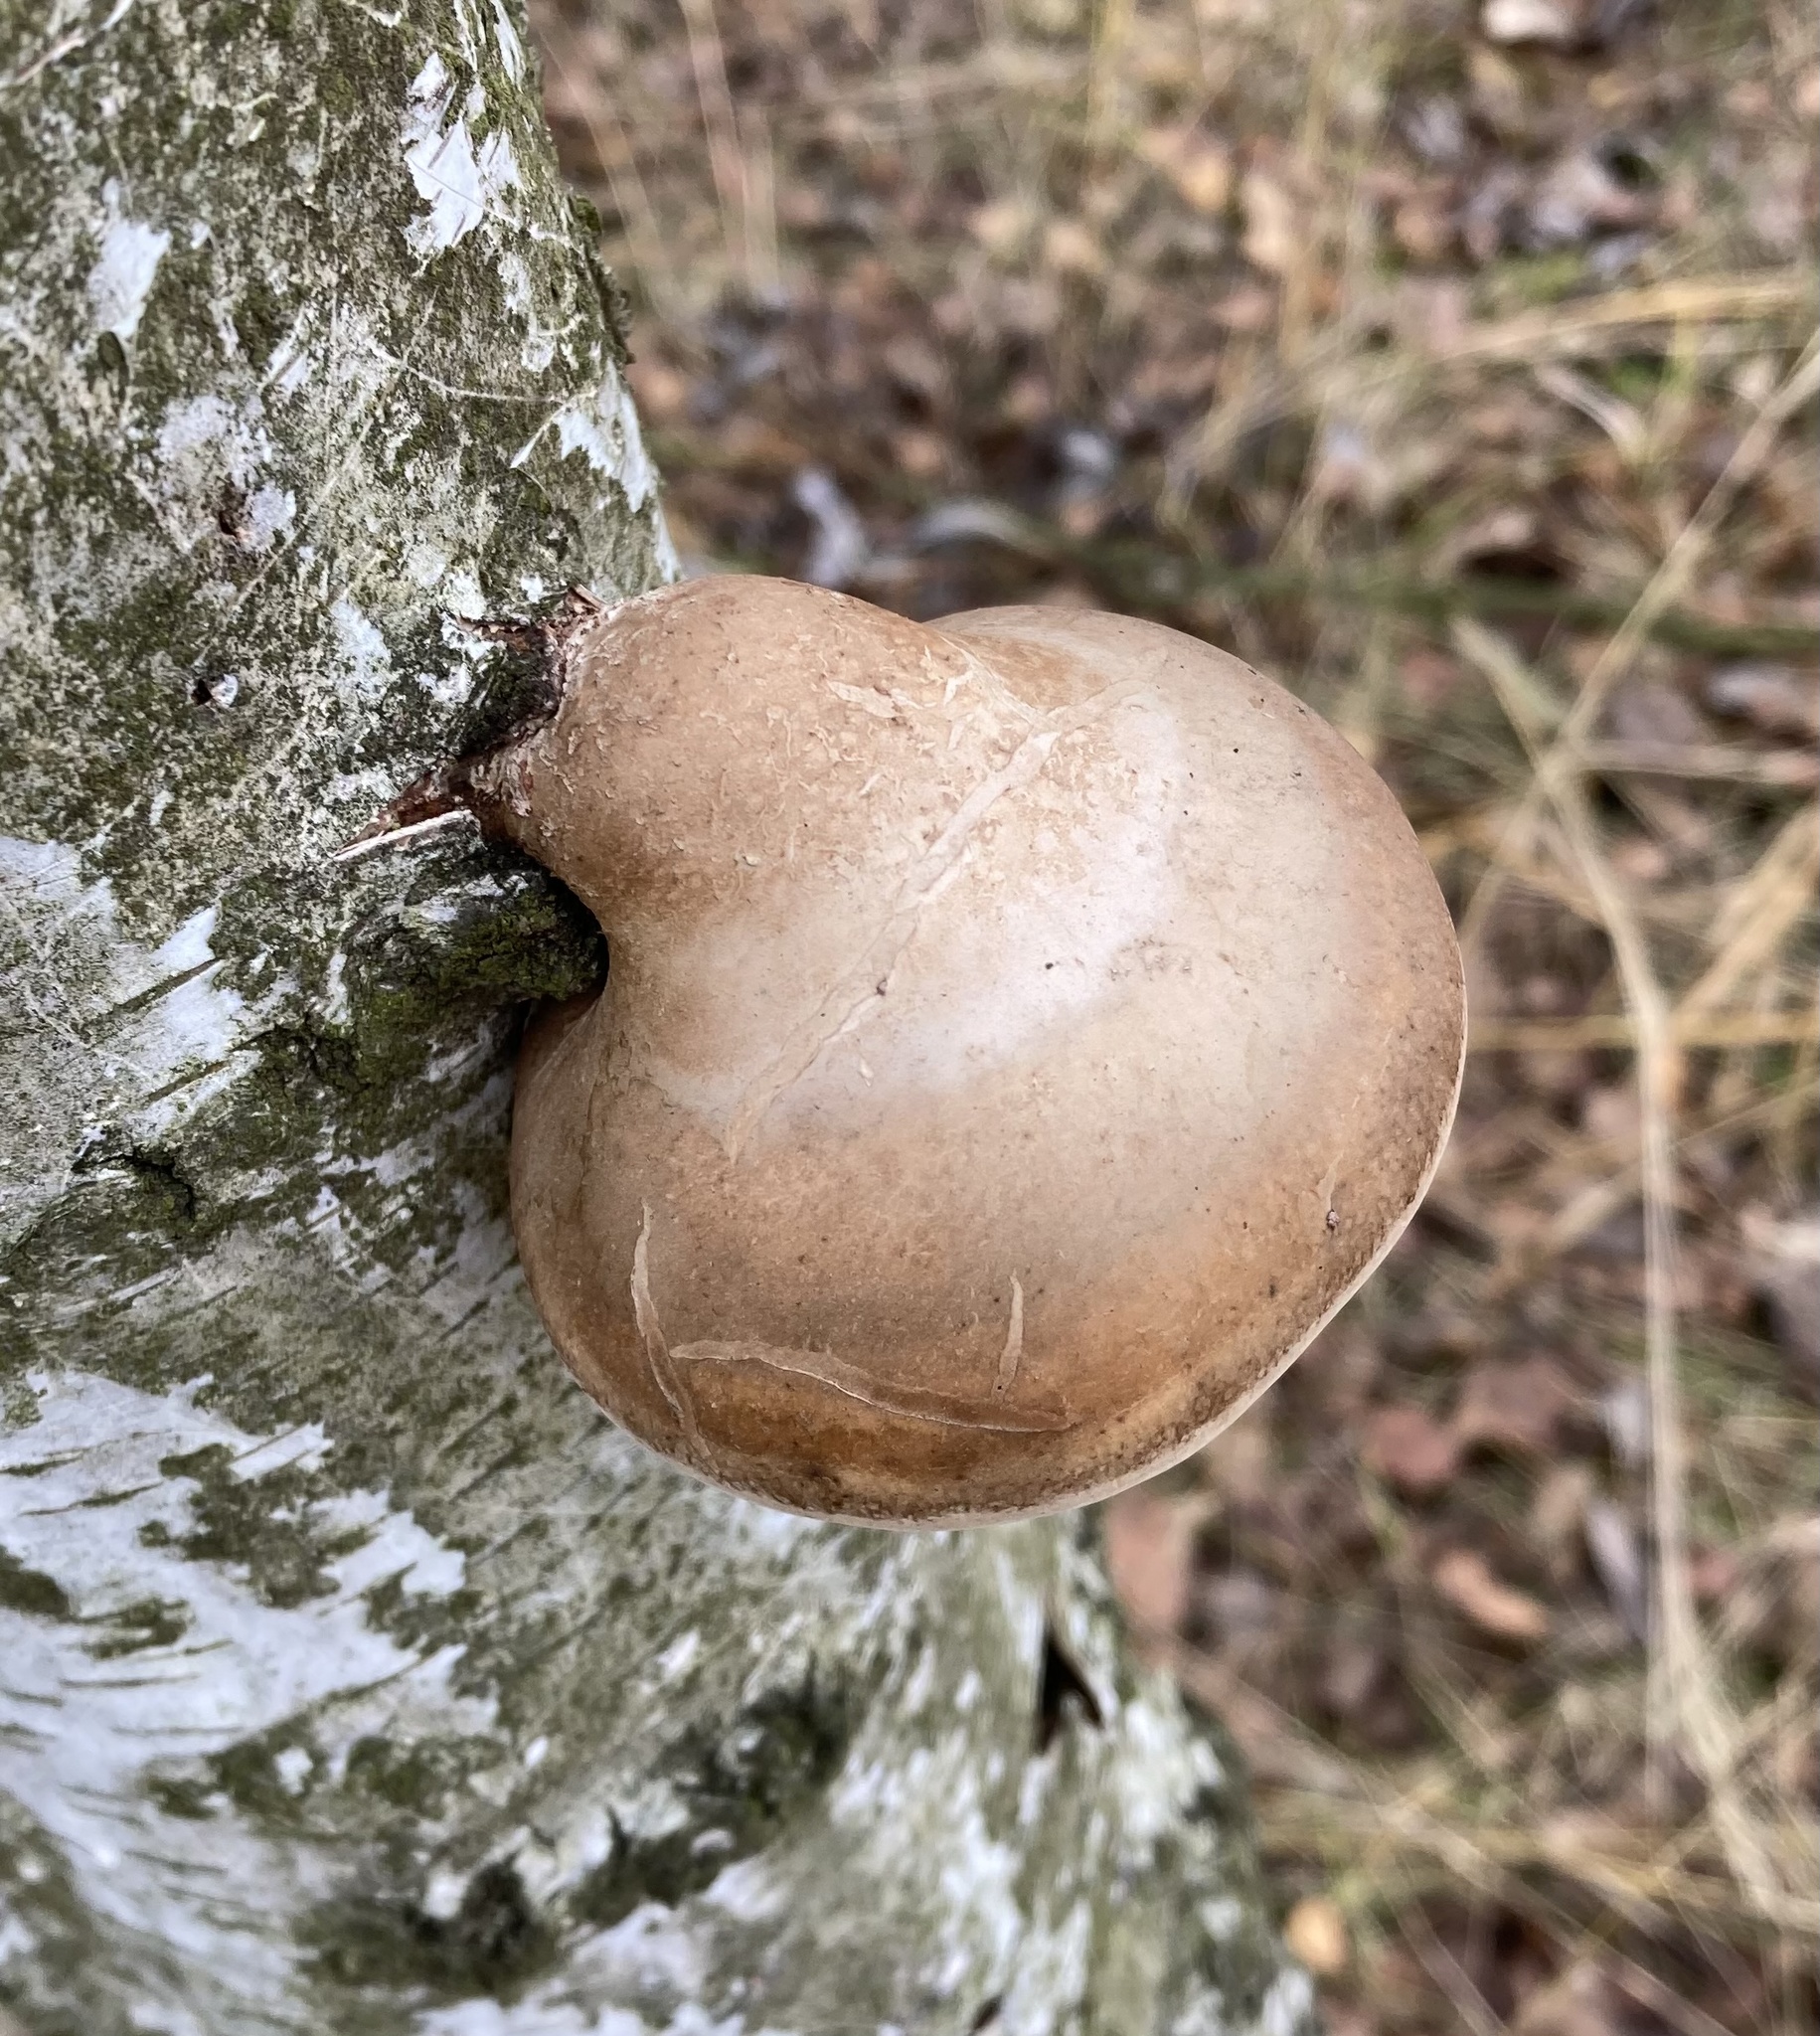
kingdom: Fungi
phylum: Basidiomycota
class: Agaricomycetes
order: Polyporales
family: Fomitopsidaceae
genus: Fomitopsis
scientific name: Fomitopsis betulina
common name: Birch polypore
